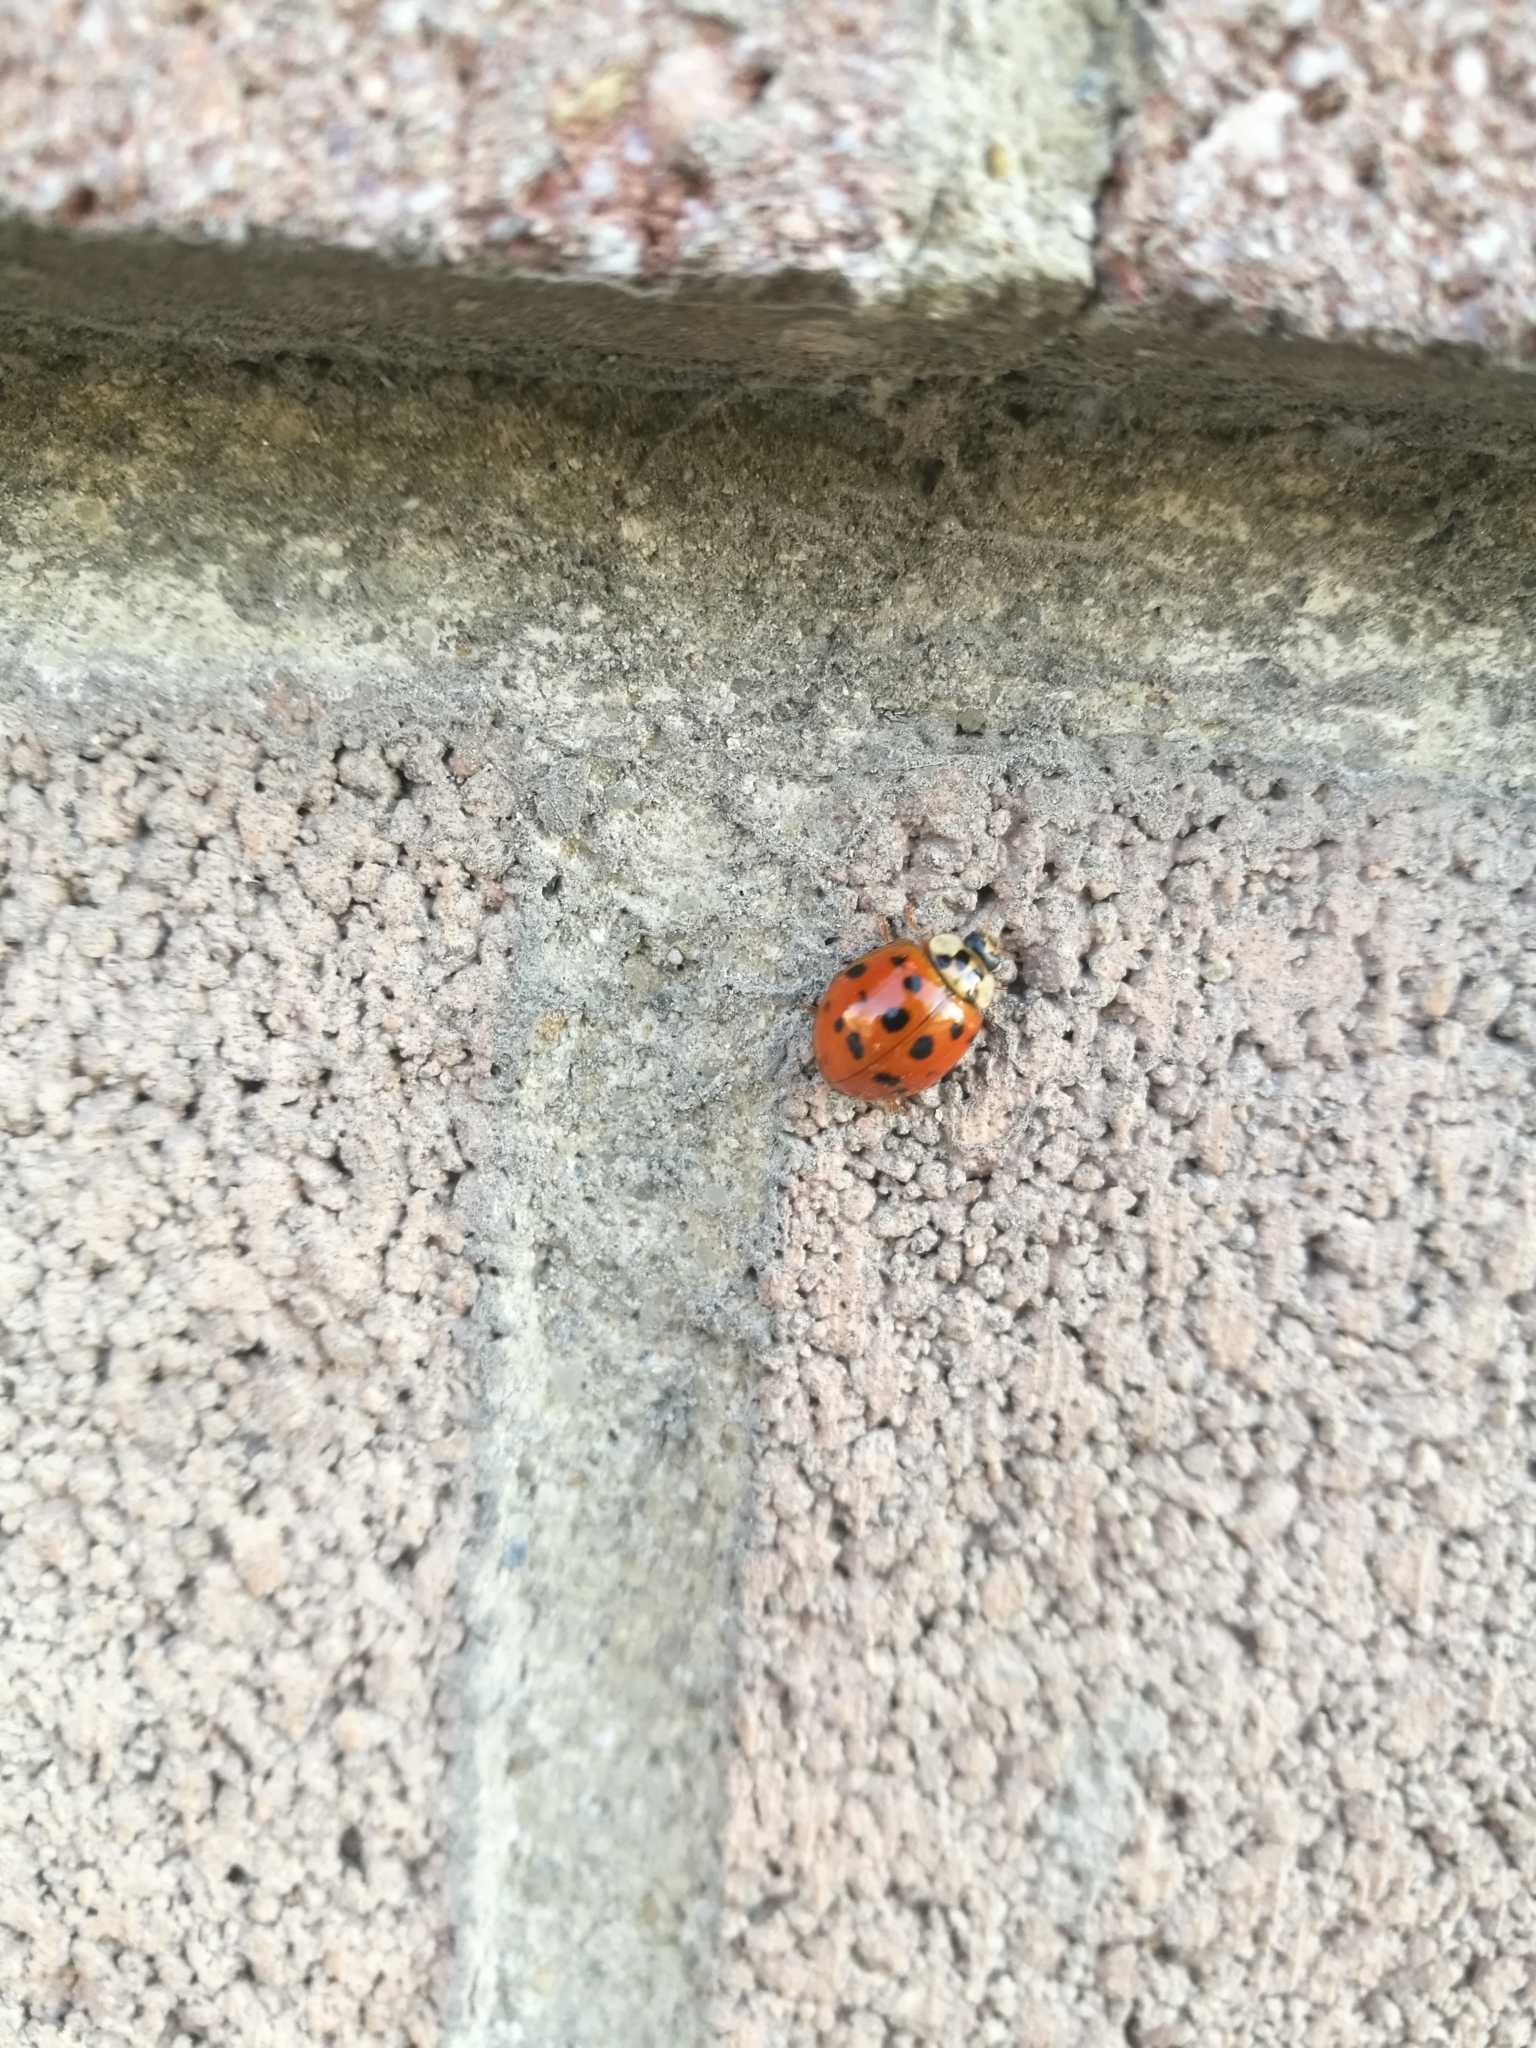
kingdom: Animalia
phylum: Arthropoda
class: Insecta
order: Coleoptera
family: Coccinellidae
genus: Harmonia
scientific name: Harmonia axyridis
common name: Harlequin ladybird
